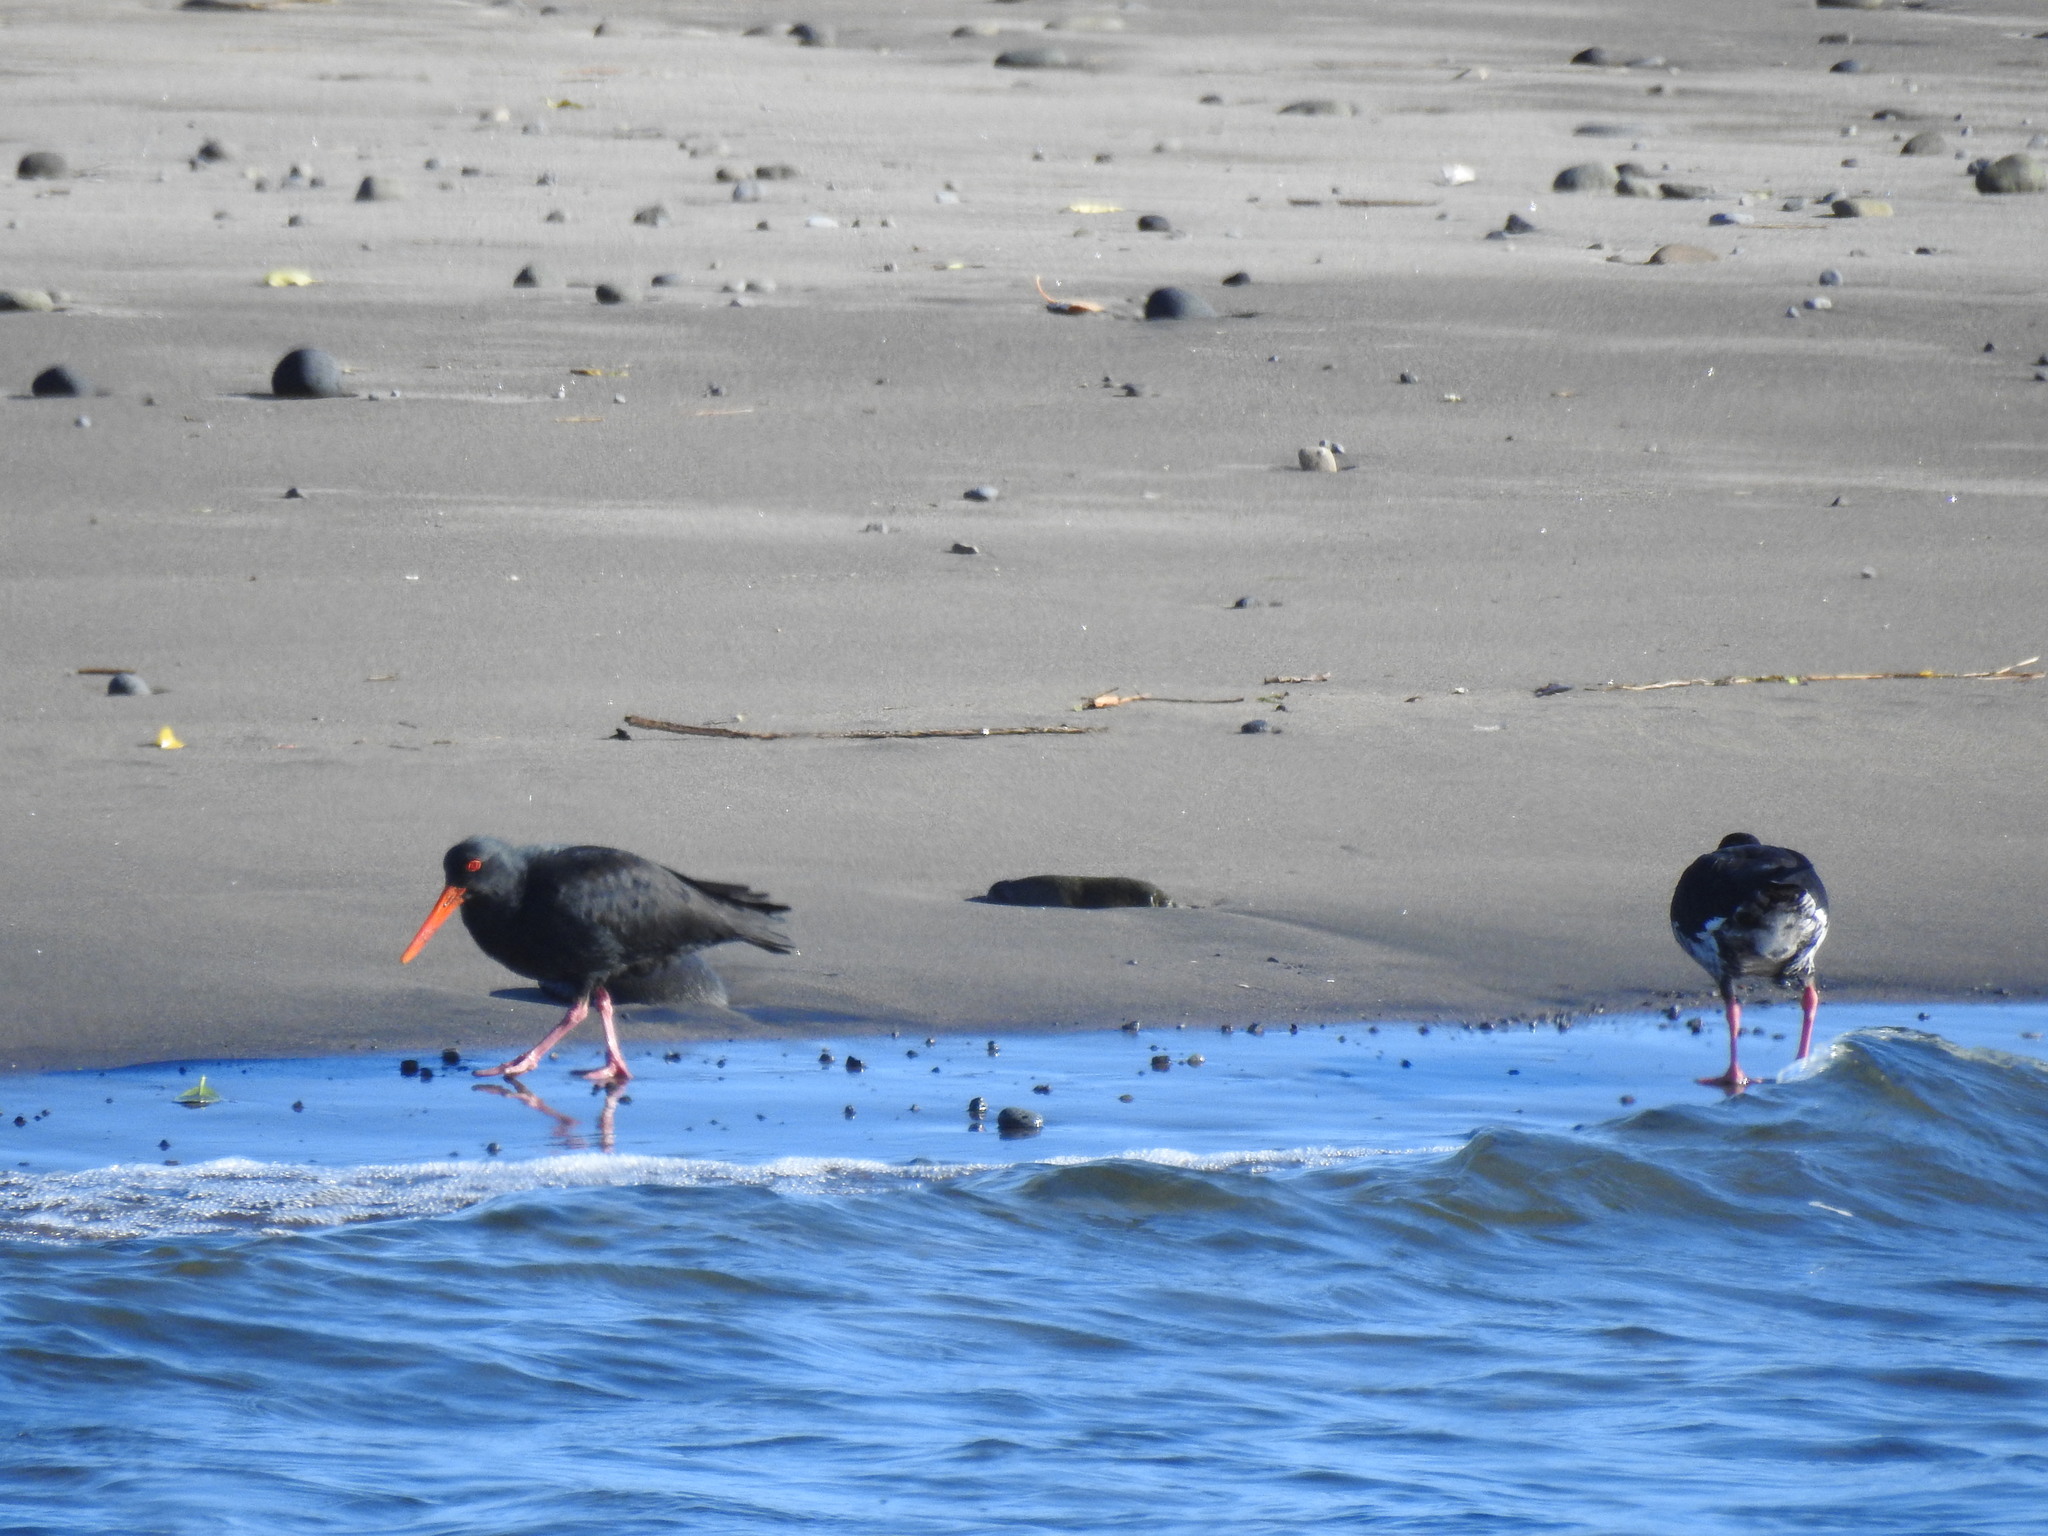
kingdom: Animalia
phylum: Chordata
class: Aves
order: Charadriiformes
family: Haematopodidae
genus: Haematopus
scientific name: Haematopus unicolor
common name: Variable oystercatcher
